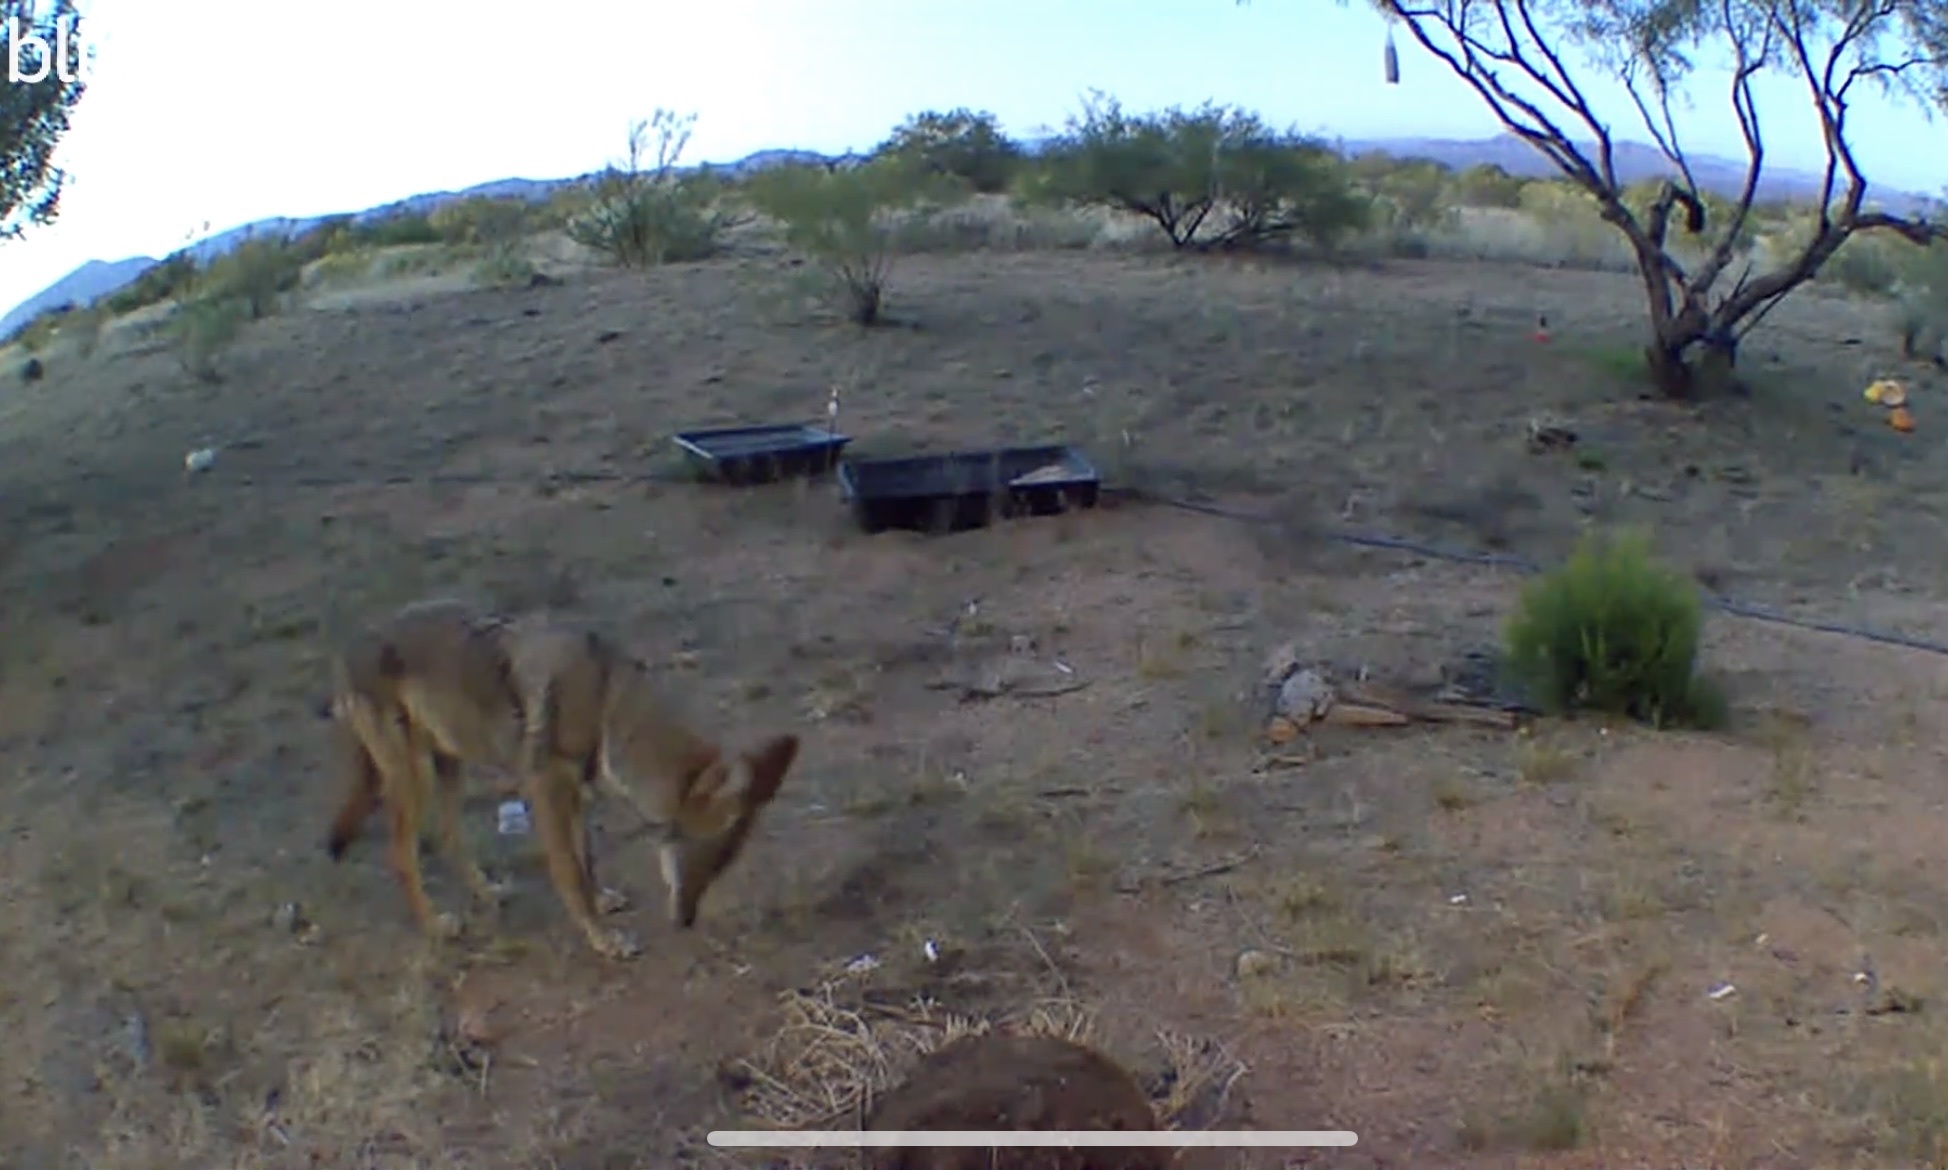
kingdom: Animalia
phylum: Chordata
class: Mammalia
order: Carnivora
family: Canidae
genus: Canis
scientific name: Canis latrans
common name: Coyote
